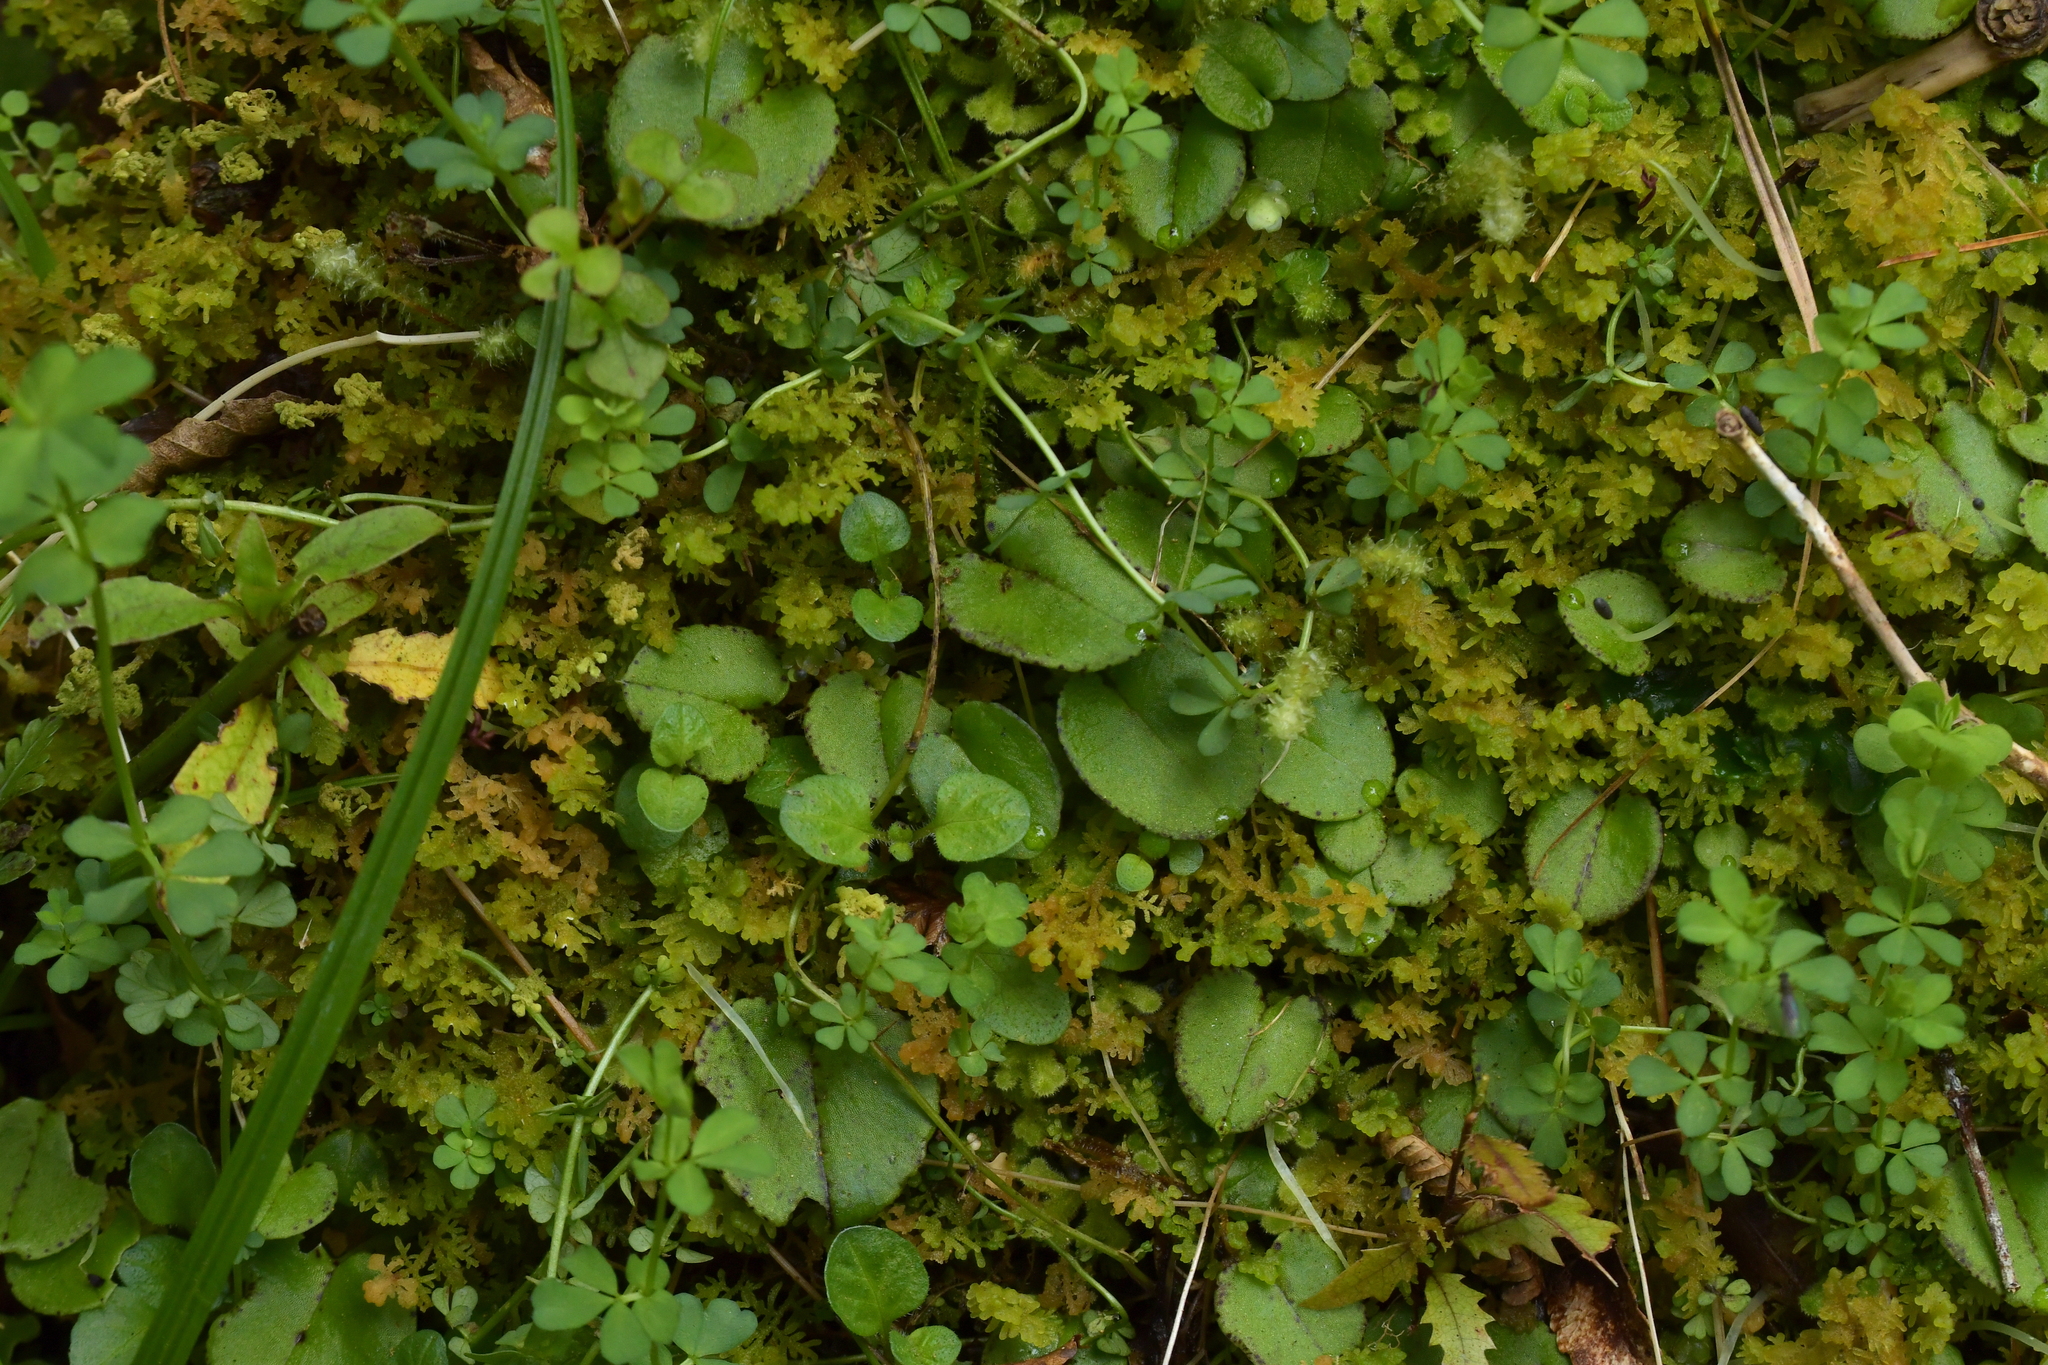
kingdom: Plantae
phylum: Tracheophyta
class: Liliopsida
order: Asparagales
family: Orchidaceae
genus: Corybas
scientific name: Corybas iridescens
